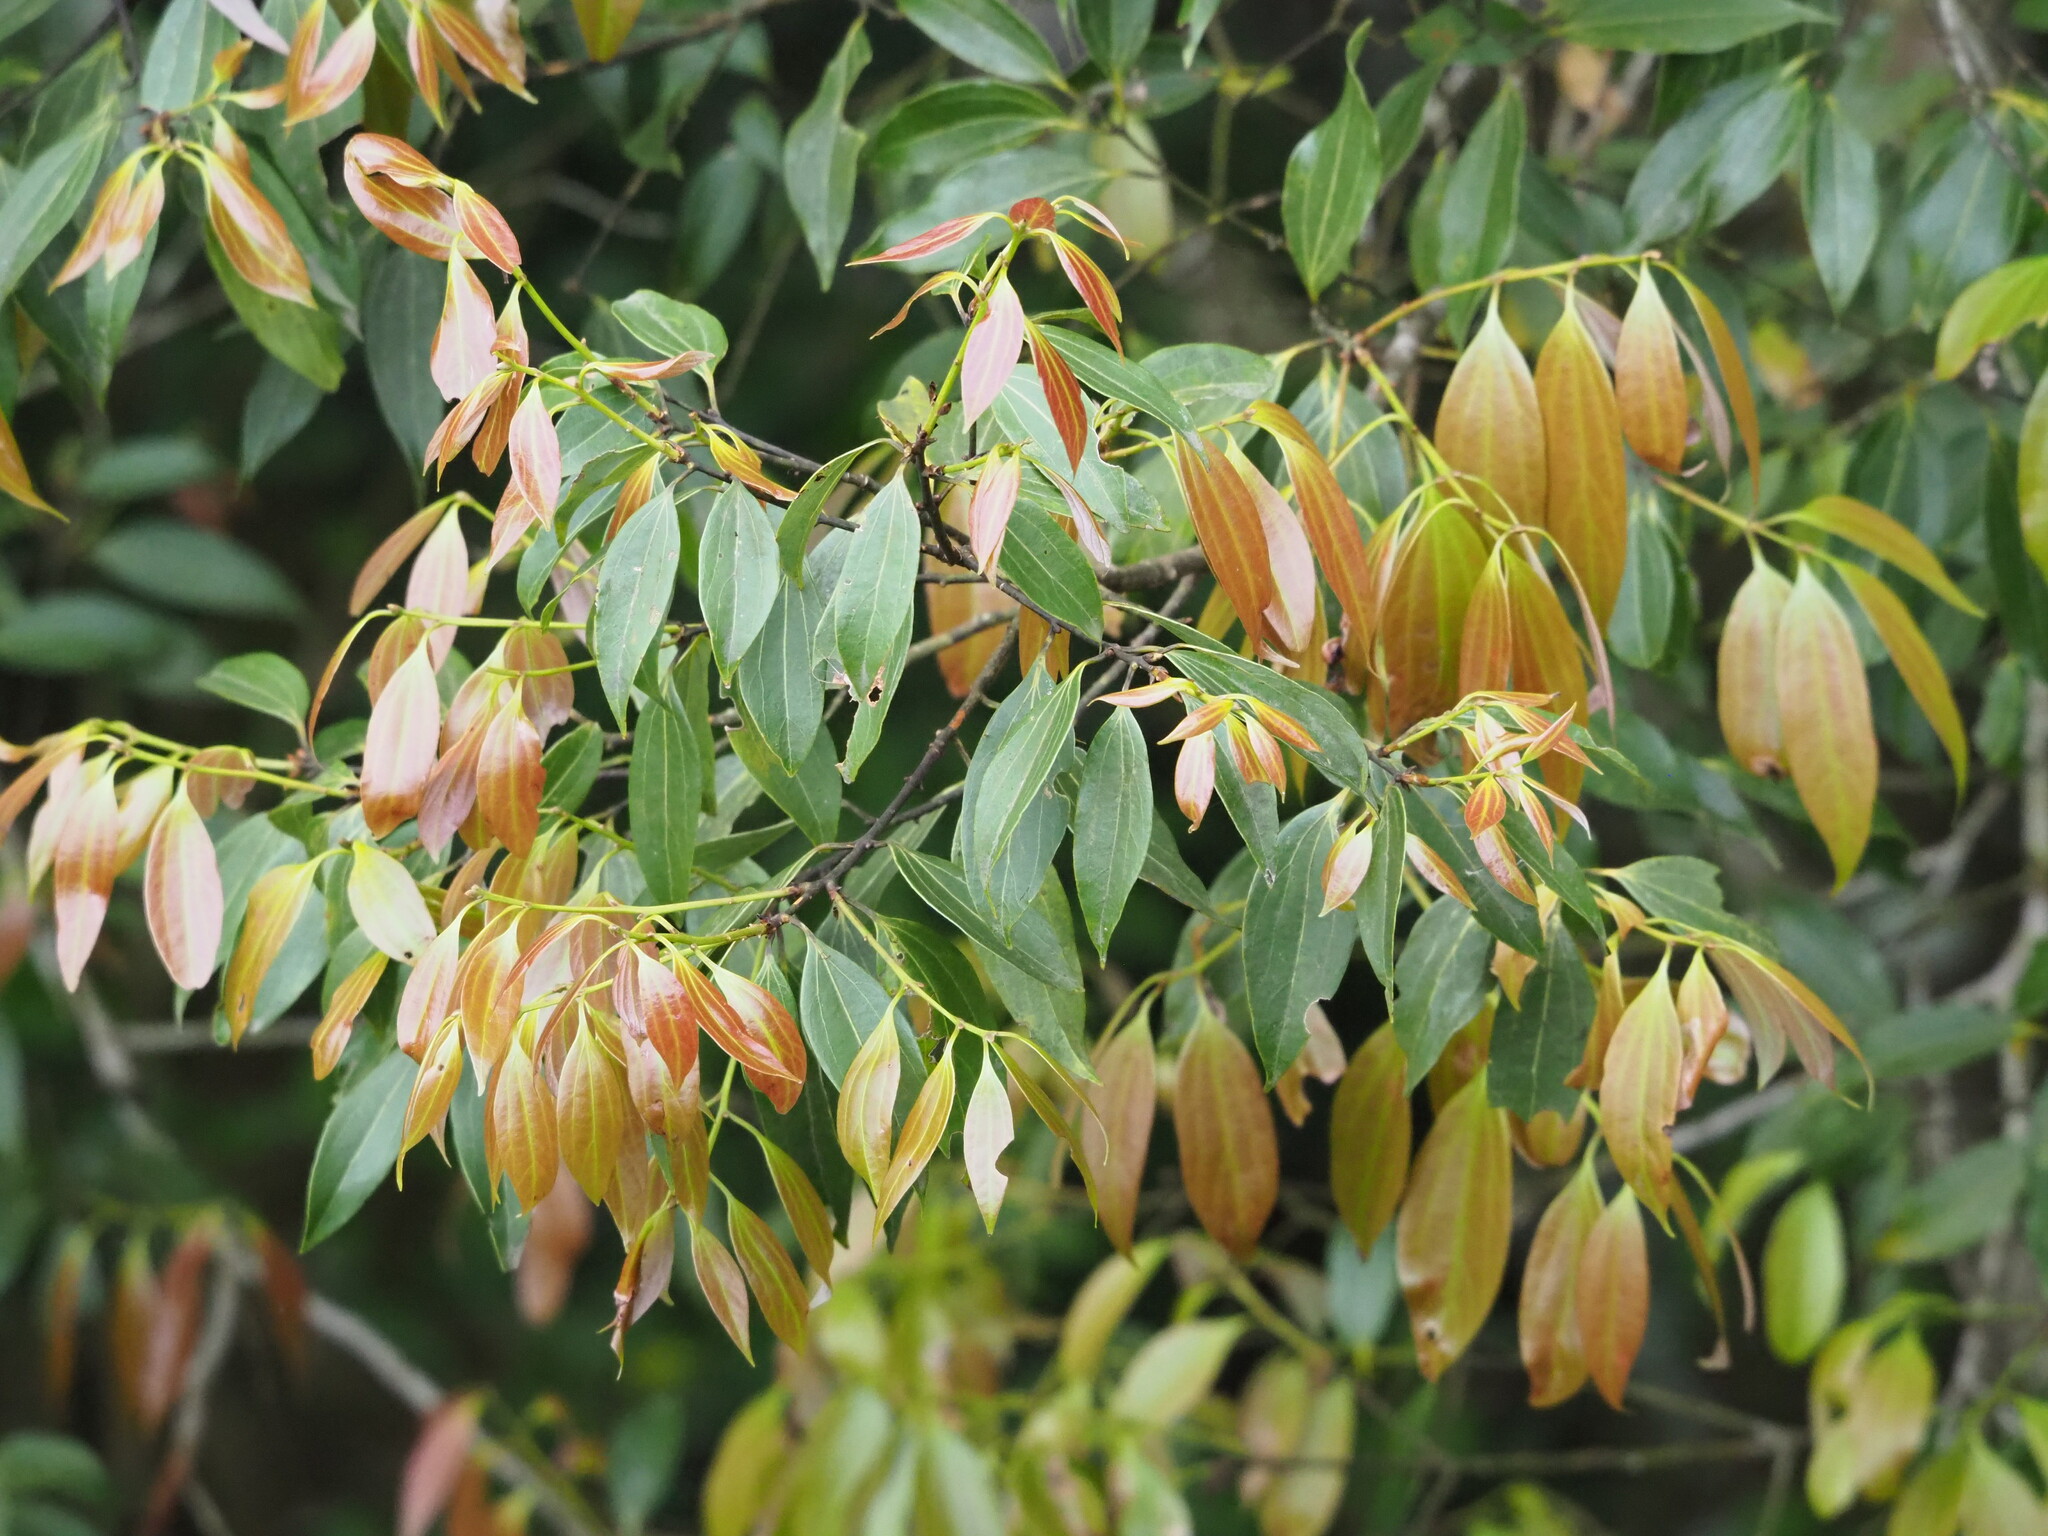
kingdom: Plantae
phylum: Tracheophyta
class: Magnoliopsida
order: Laurales
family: Lauraceae
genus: Cinnamomum
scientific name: Cinnamomum burmanni
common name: Padang cassia
